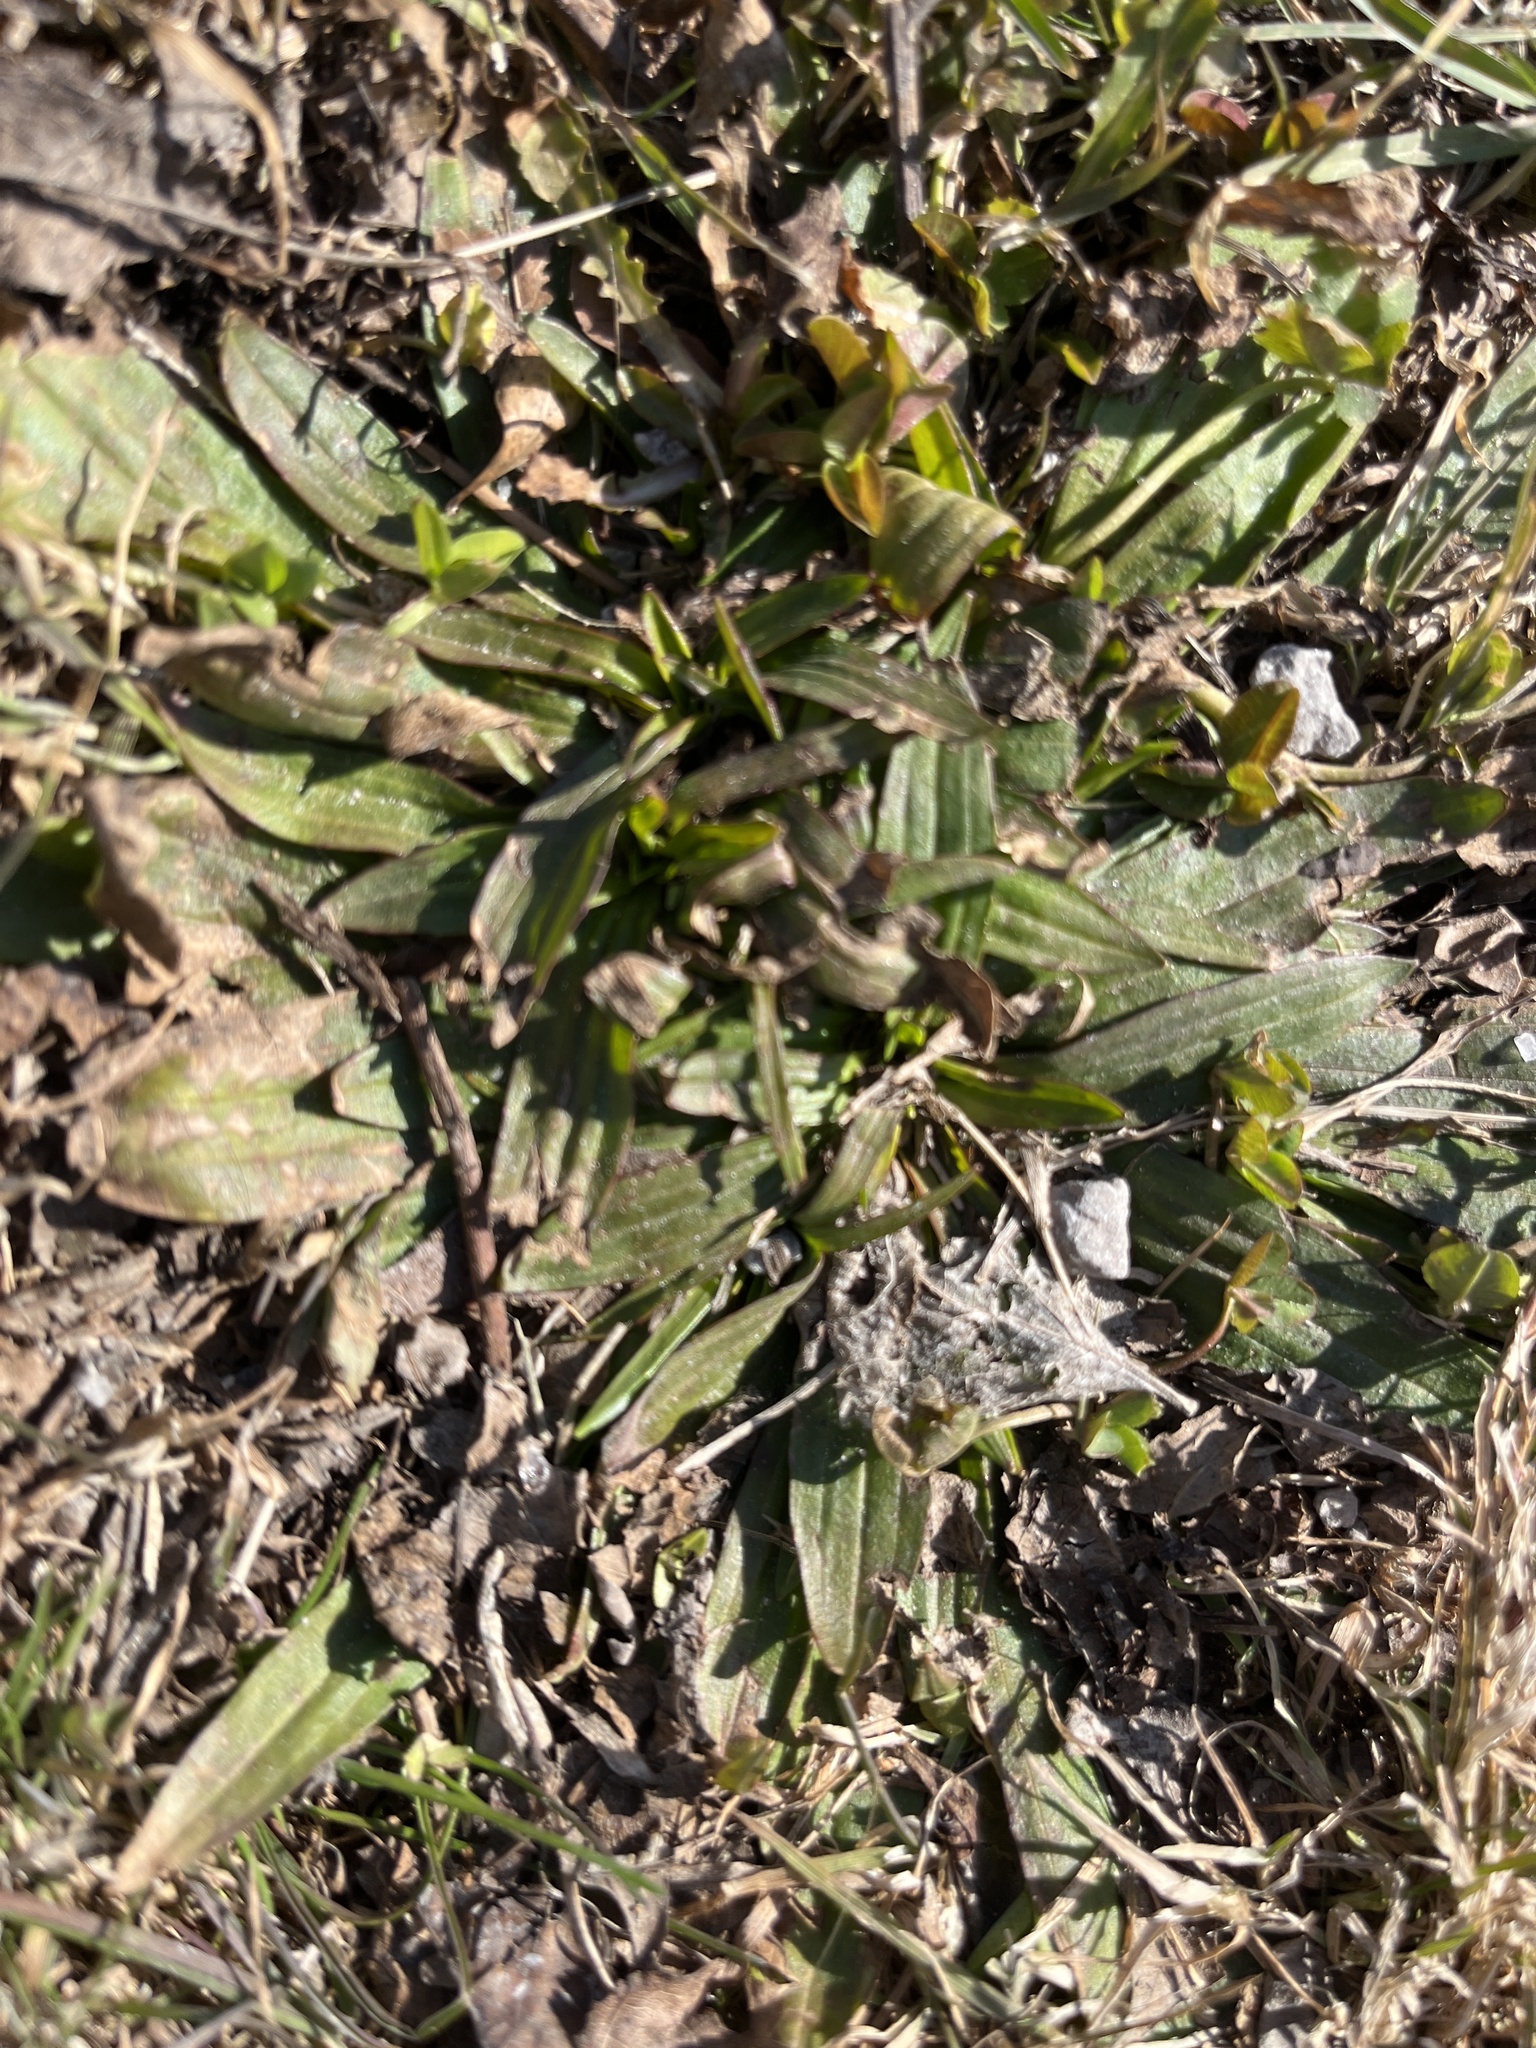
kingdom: Plantae
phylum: Tracheophyta
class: Magnoliopsida
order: Lamiales
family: Plantaginaceae
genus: Plantago
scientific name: Plantago lanceolata
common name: Ribwort plantain
